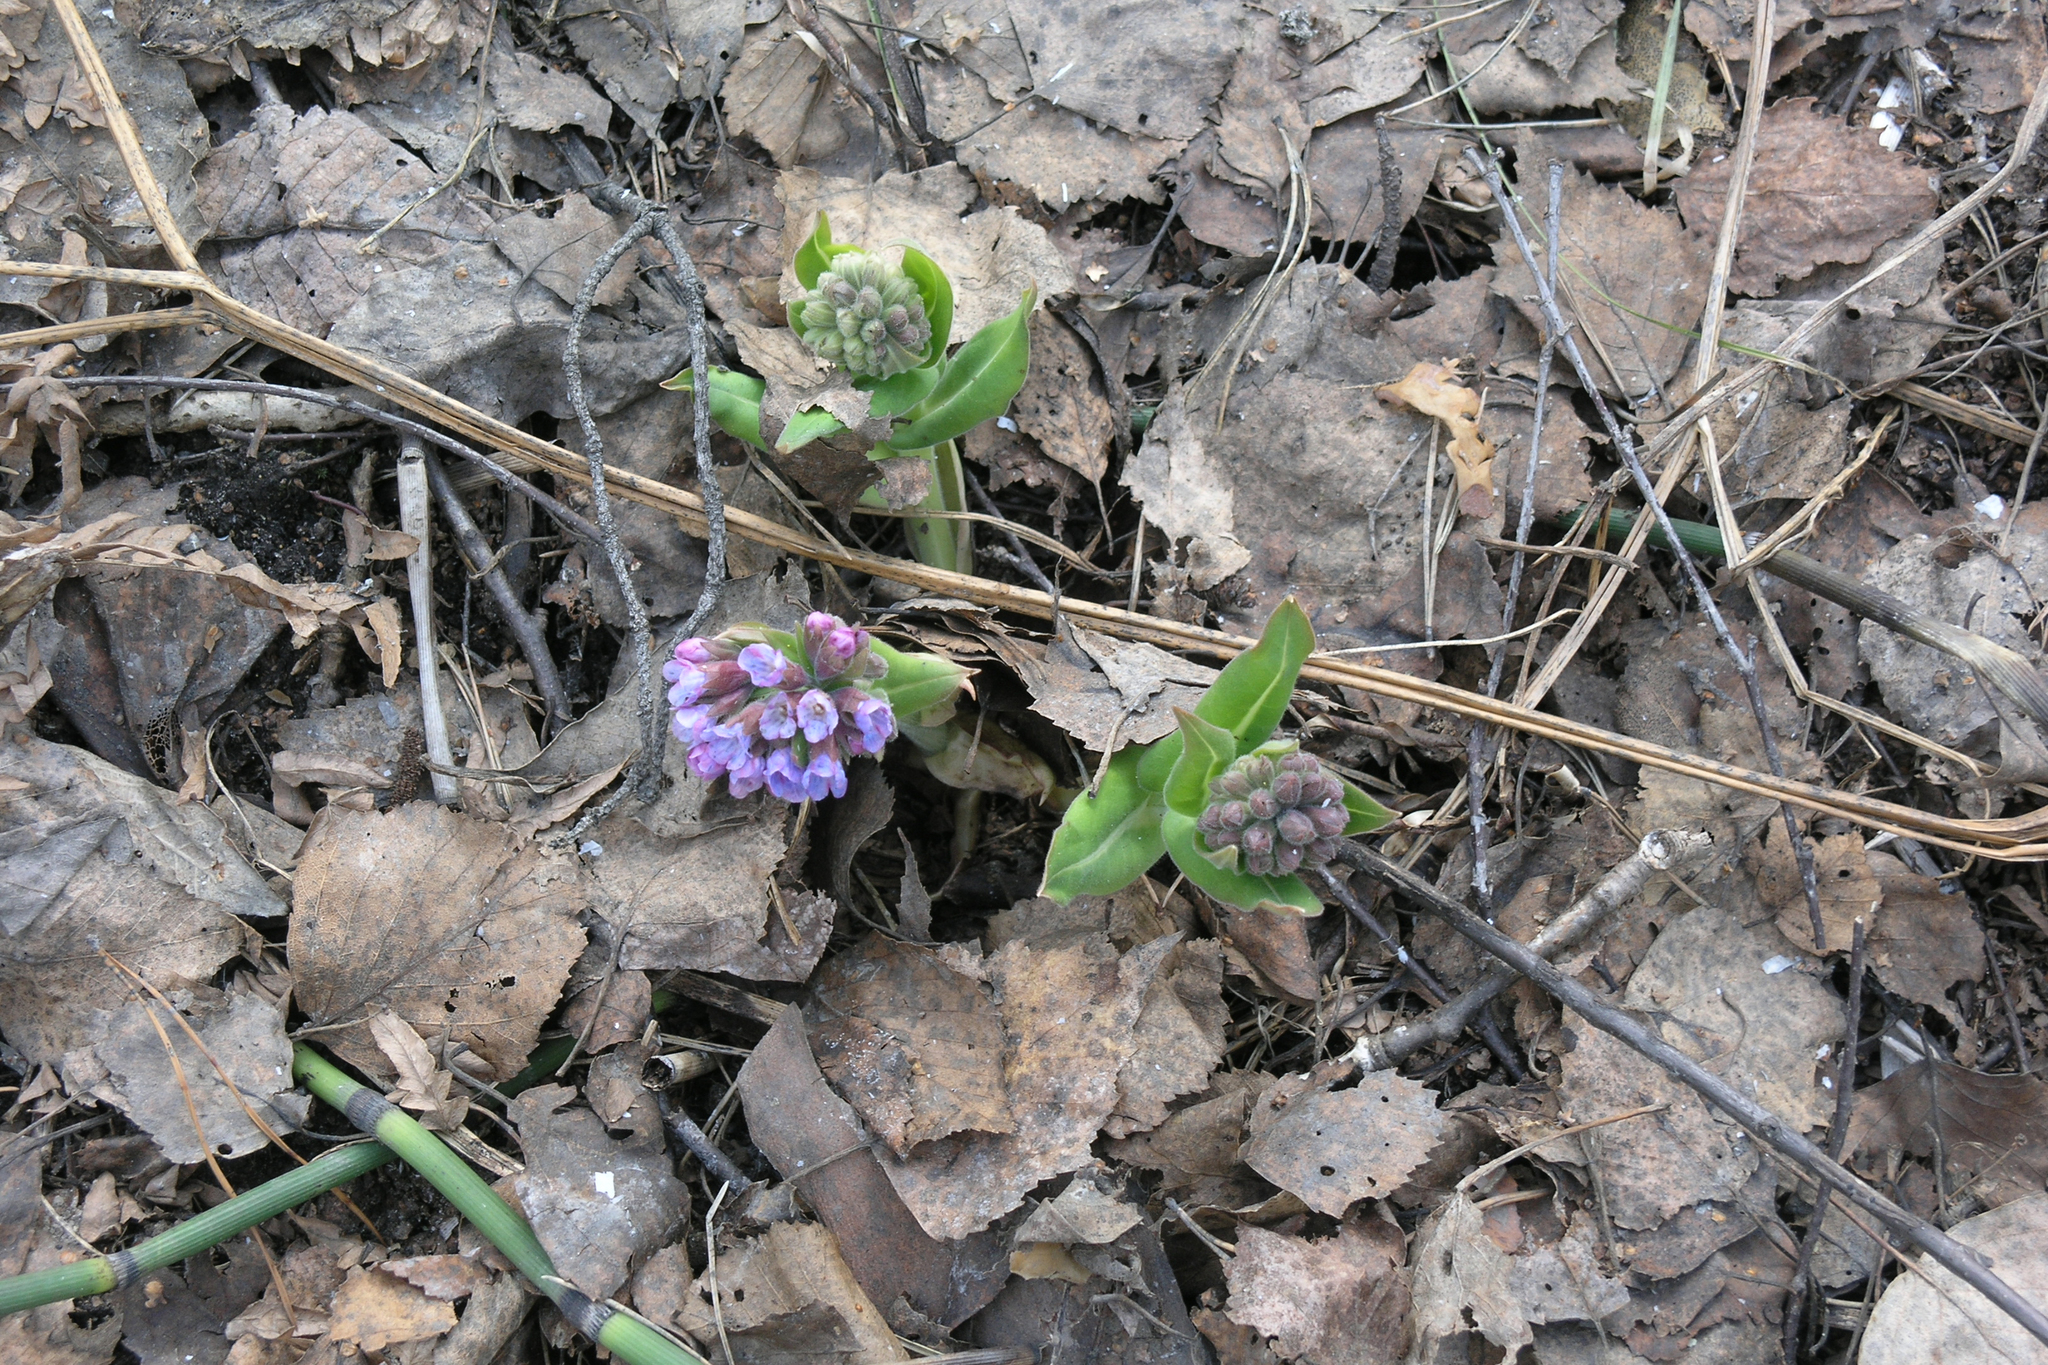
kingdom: Plantae
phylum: Tracheophyta
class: Magnoliopsida
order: Boraginales
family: Boraginaceae
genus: Pulmonaria
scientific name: Pulmonaria mollis
